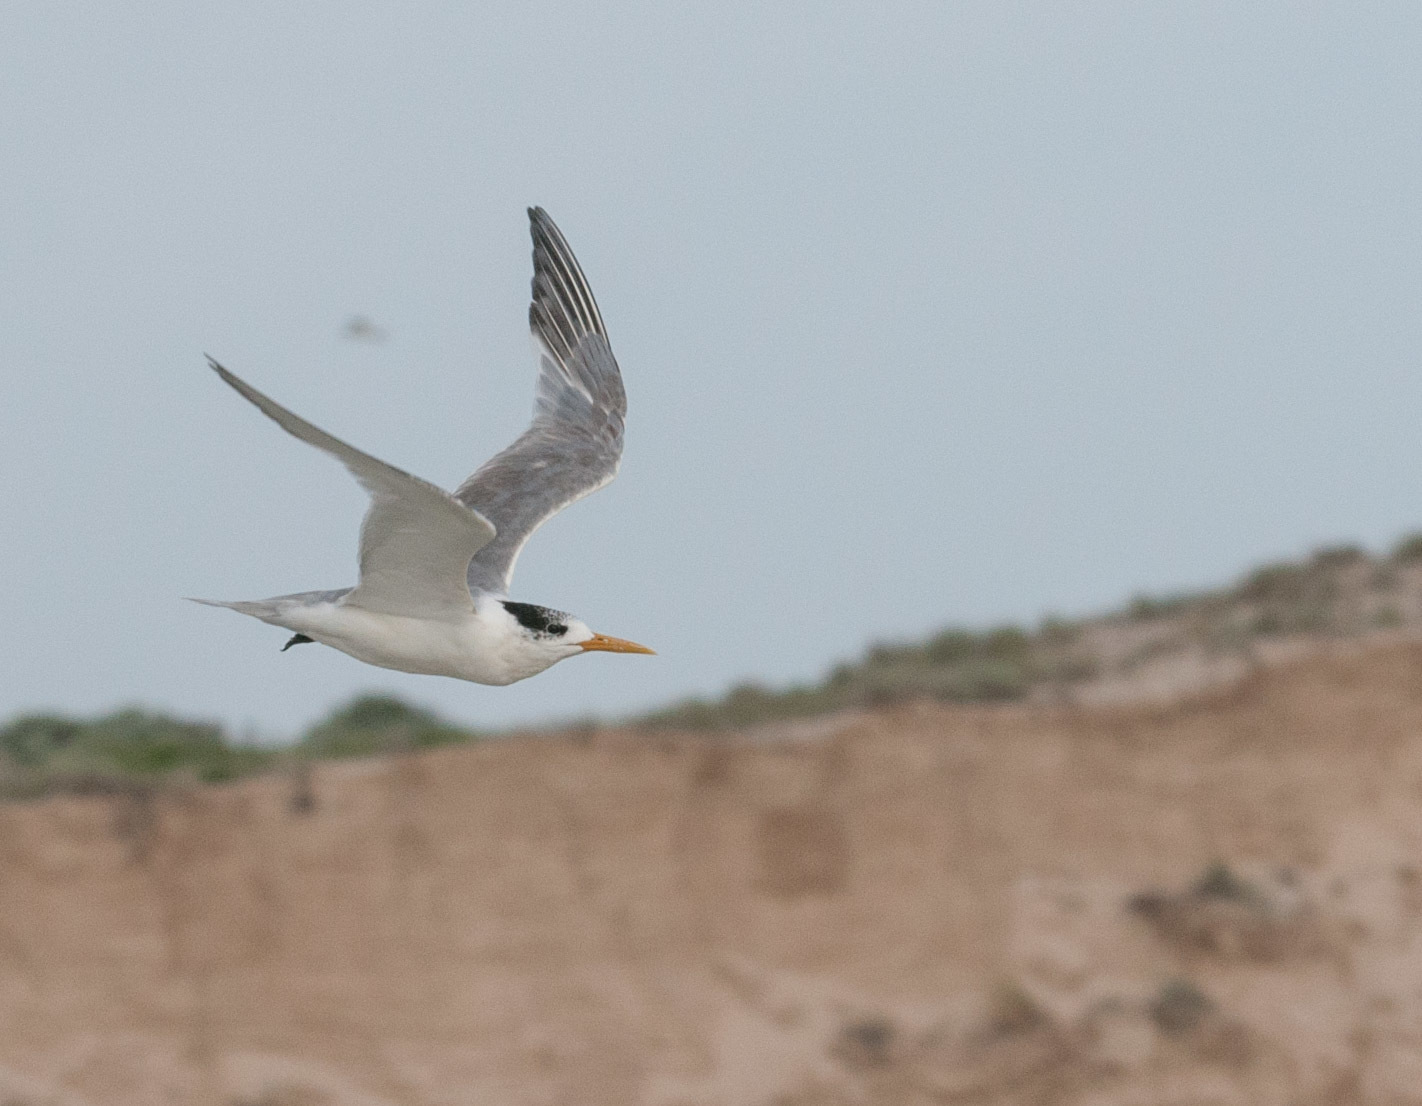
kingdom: Animalia
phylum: Chordata
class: Aves
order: Charadriiformes
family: Laridae
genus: Thalasseus
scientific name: Thalasseus bergii
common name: Greater crested tern
